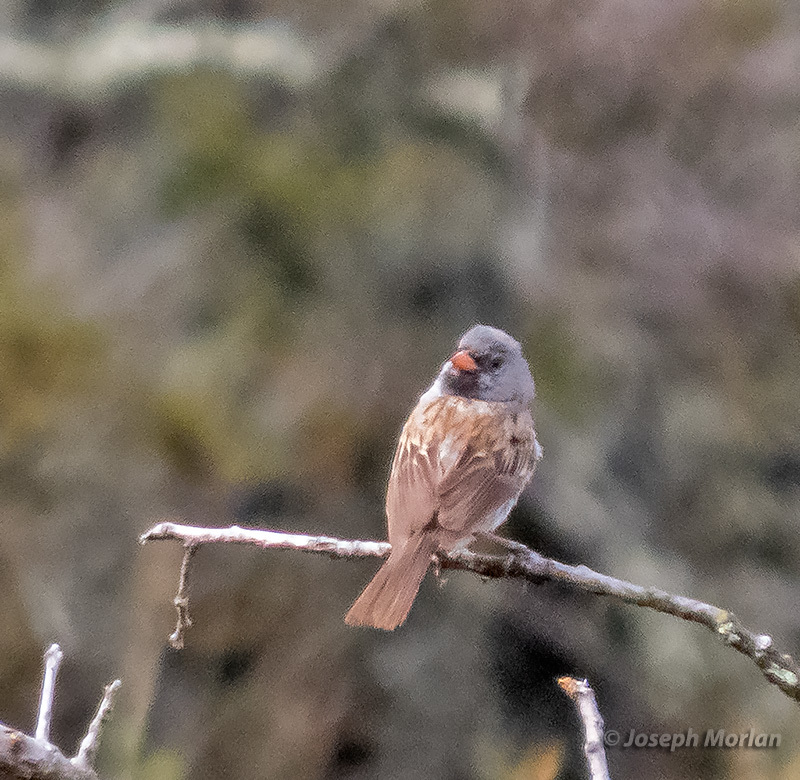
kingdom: Animalia
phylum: Chordata
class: Aves
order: Passeriformes
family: Passerellidae
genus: Spizella
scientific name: Spizella atrogularis
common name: Black-chinned sparrow
